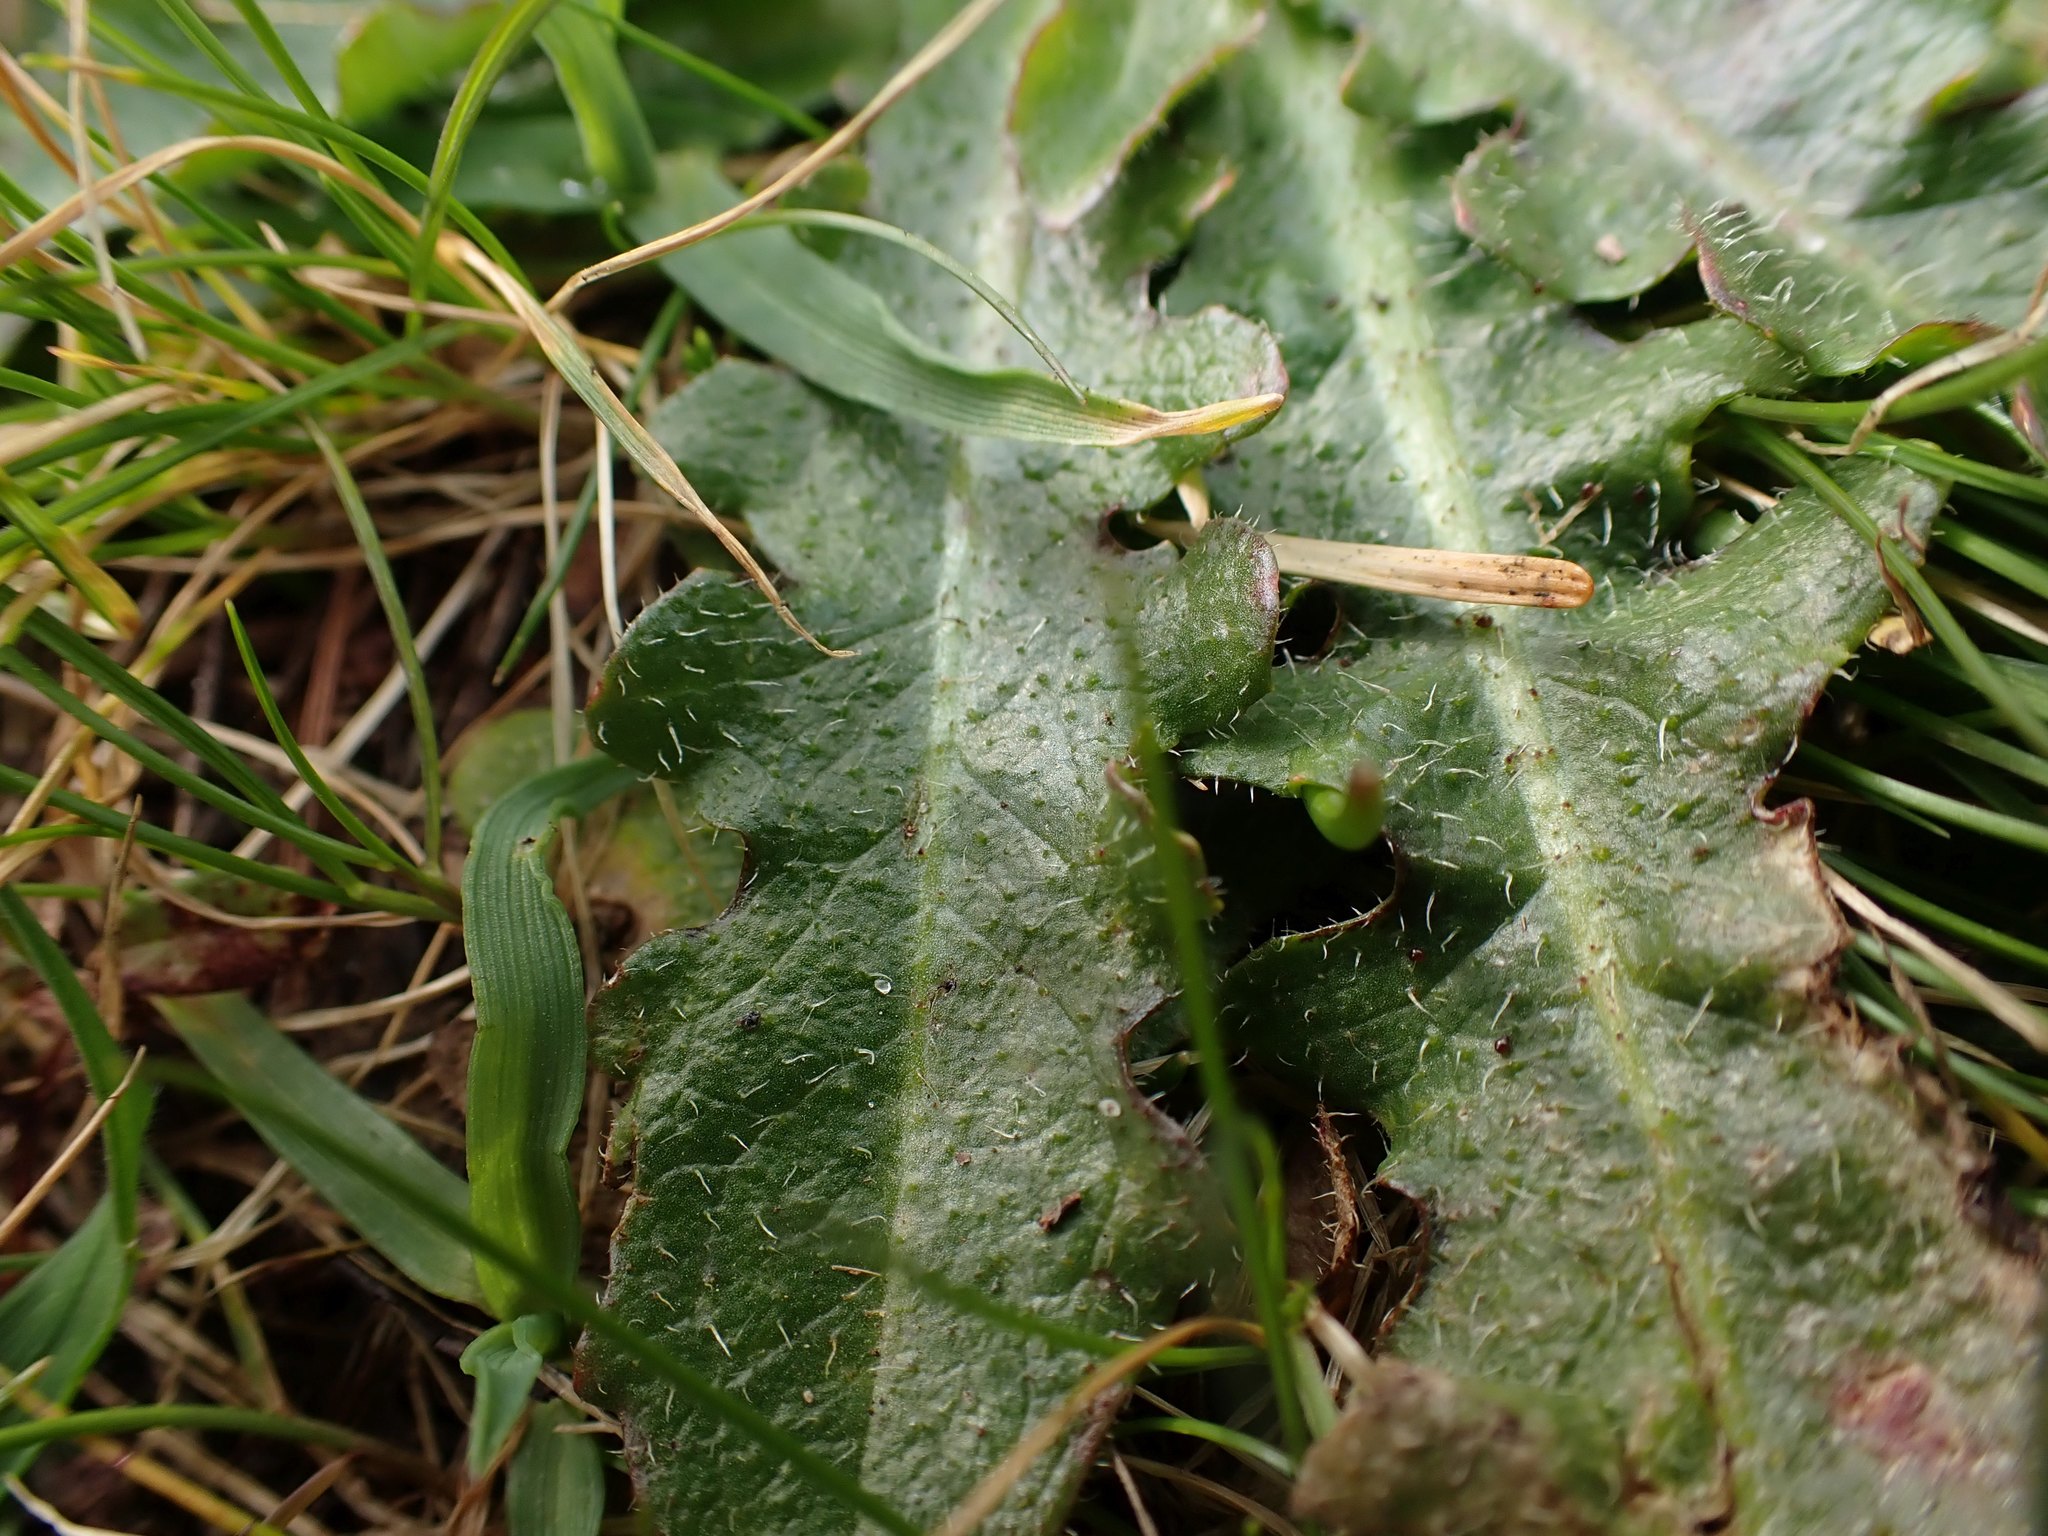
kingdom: Plantae
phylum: Tracheophyta
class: Magnoliopsida
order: Asterales
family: Asteraceae
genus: Hypochaeris
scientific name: Hypochaeris radicata
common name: Flatweed
